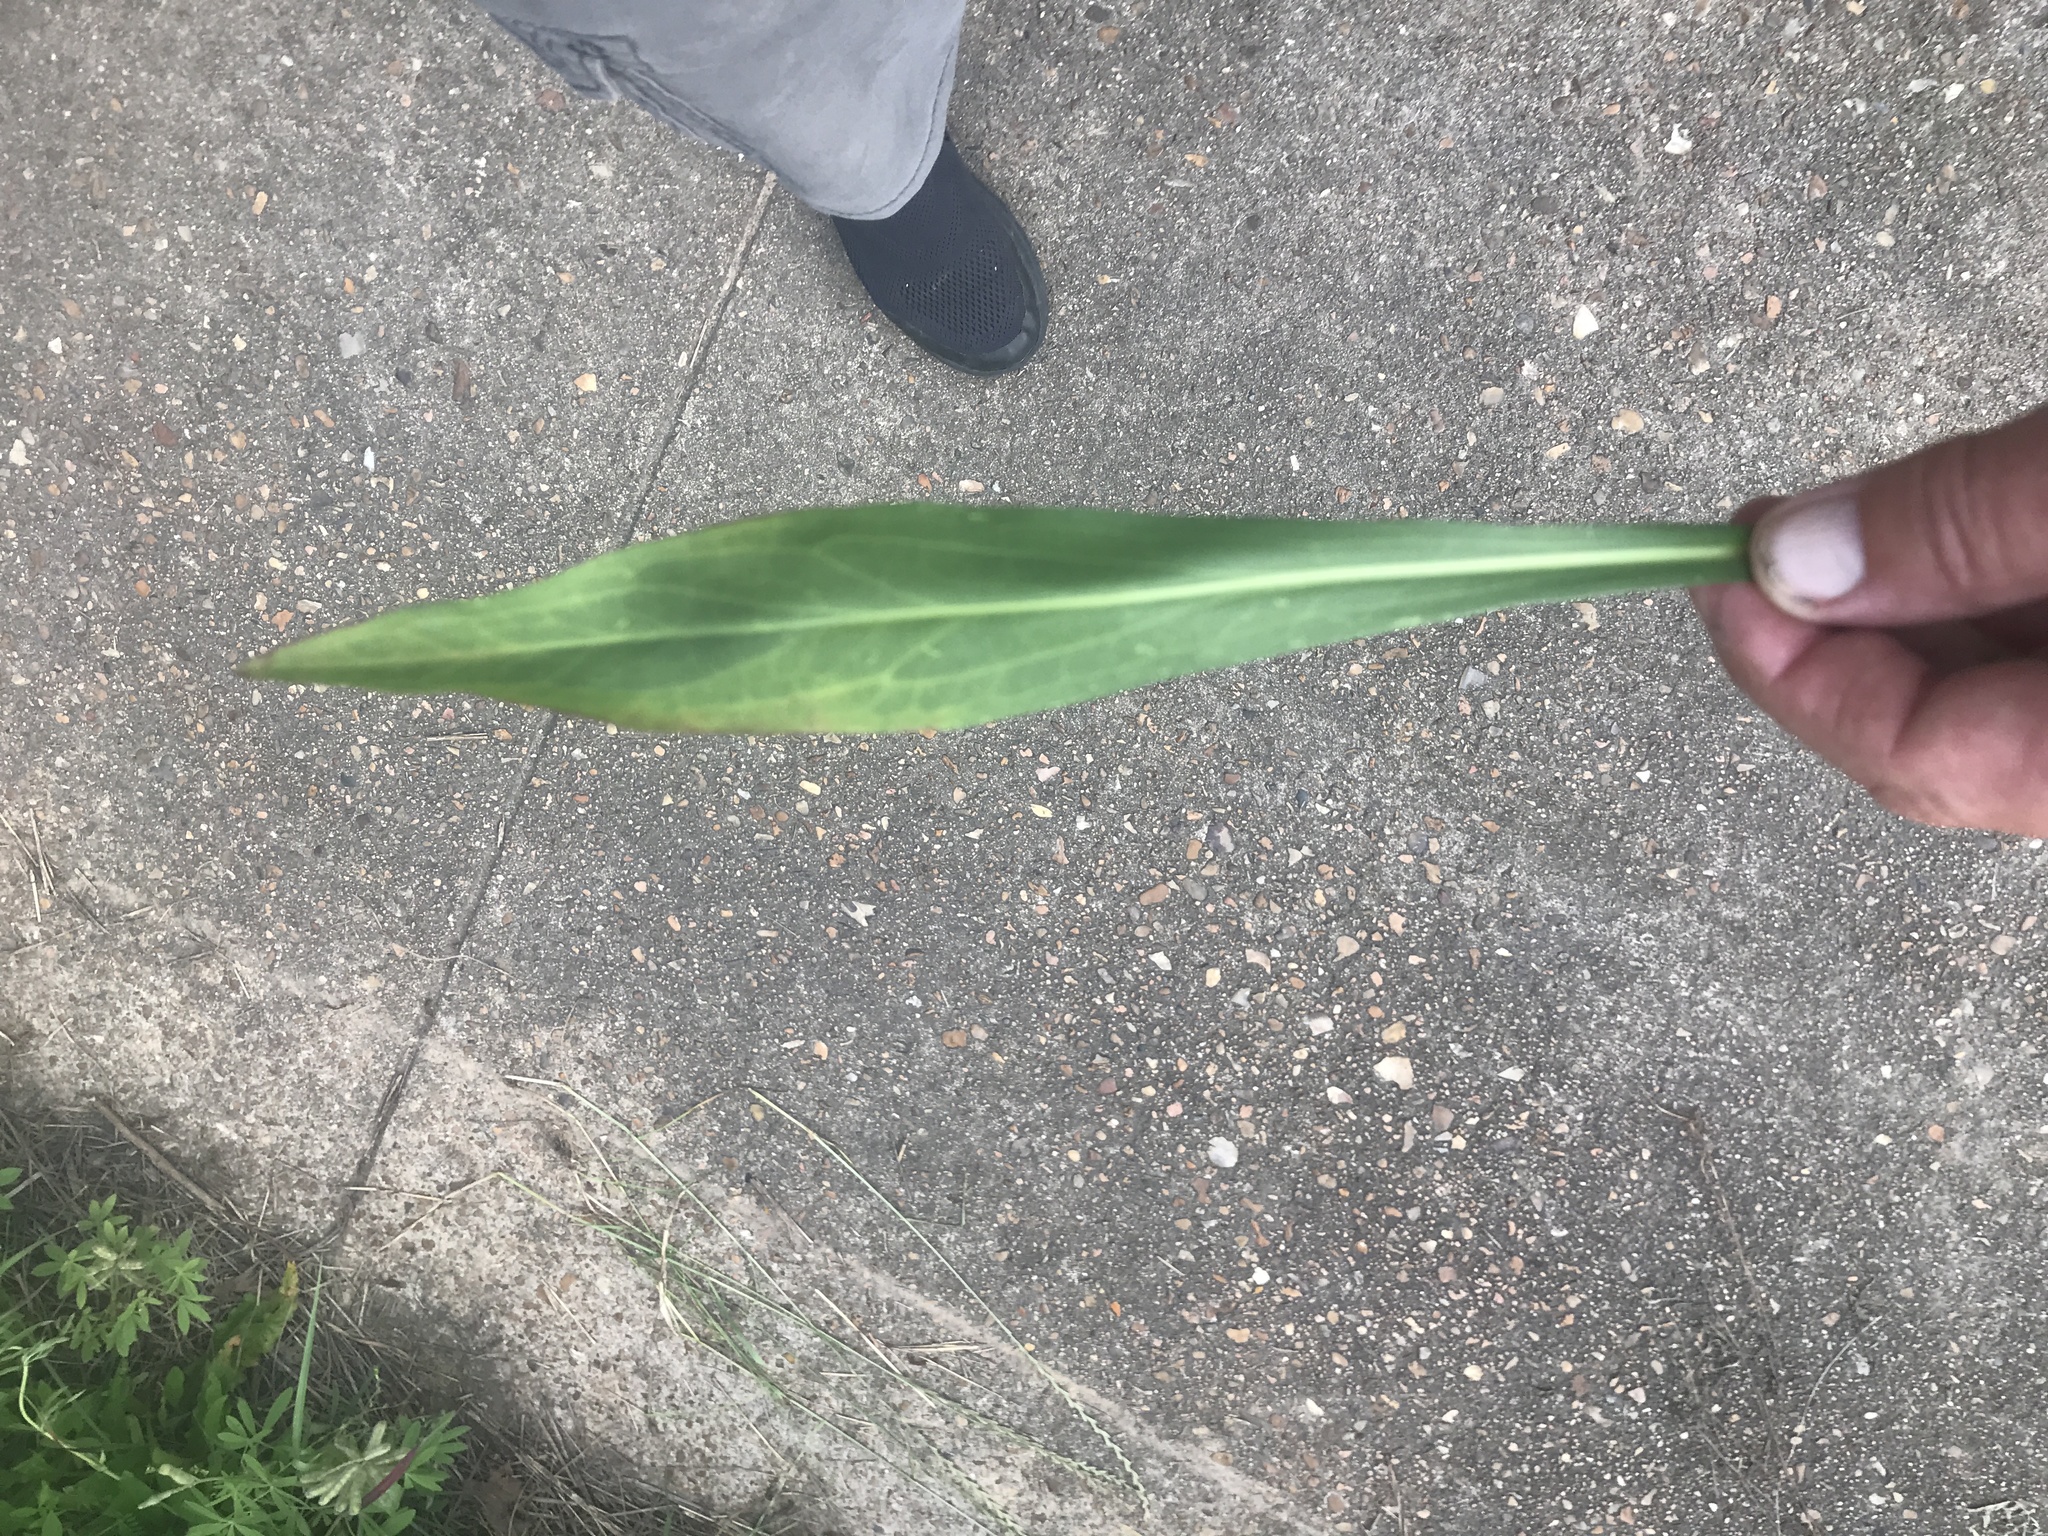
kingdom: Plantae
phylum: Tracheophyta
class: Magnoliopsida
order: Asterales
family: Asteraceae
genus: Solidago
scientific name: Solidago mexicana
